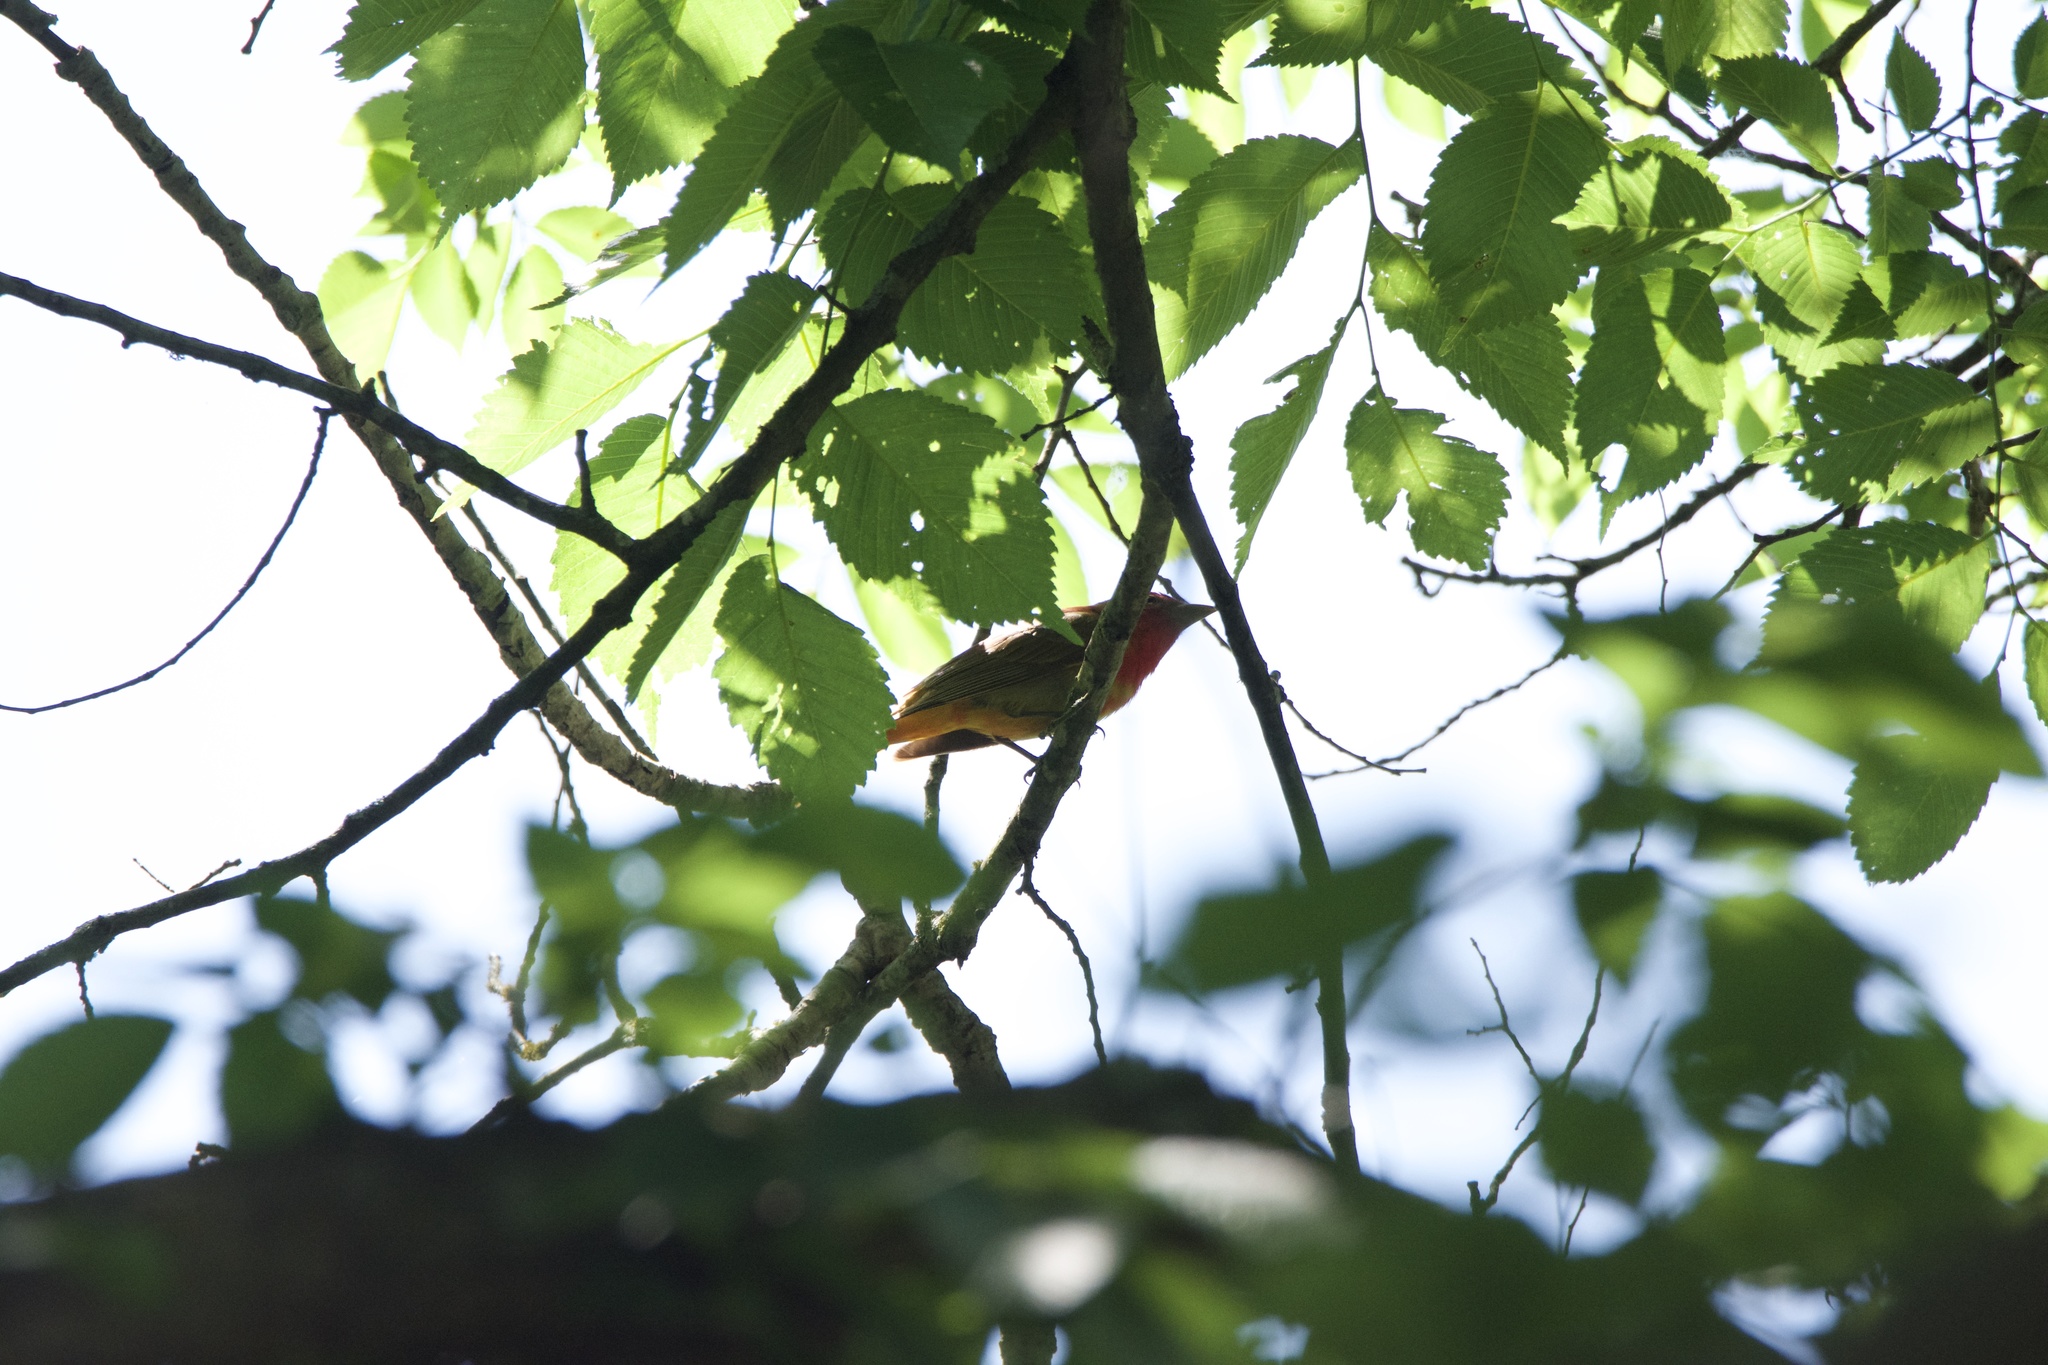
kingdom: Animalia
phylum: Chordata
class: Aves
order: Passeriformes
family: Cardinalidae
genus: Piranga
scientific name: Piranga rubra
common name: Summer tanager
